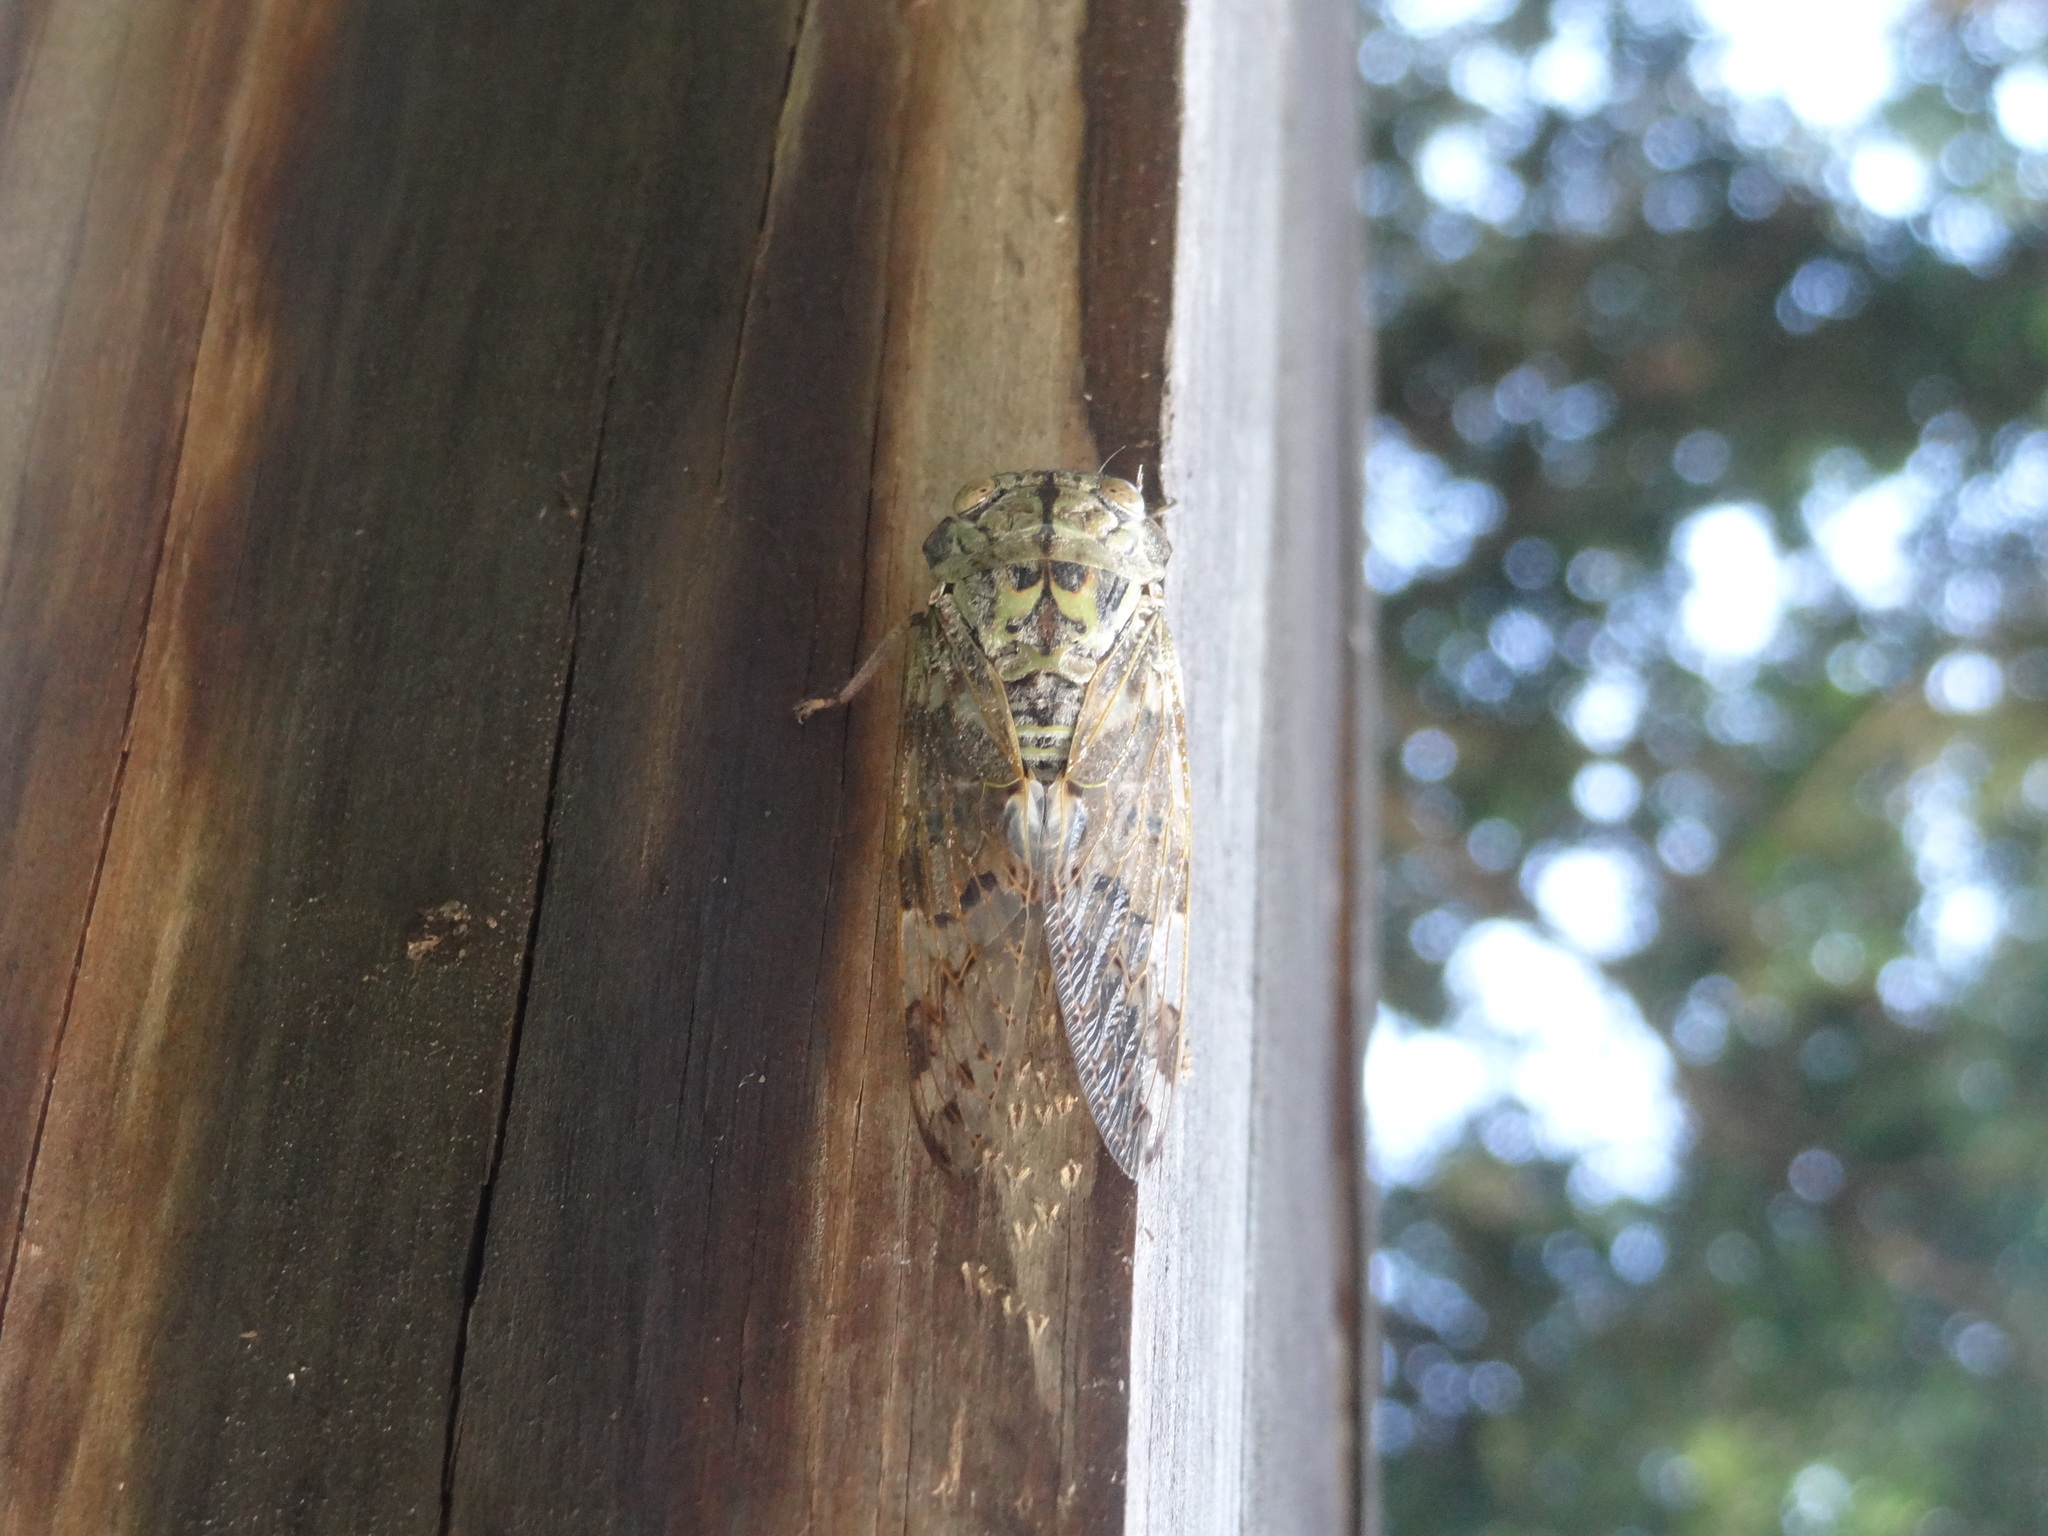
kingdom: Animalia
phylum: Arthropoda
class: Insecta
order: Hemiptera
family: Cicadidae
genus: Platypleura
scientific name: Platypleura takasagona
